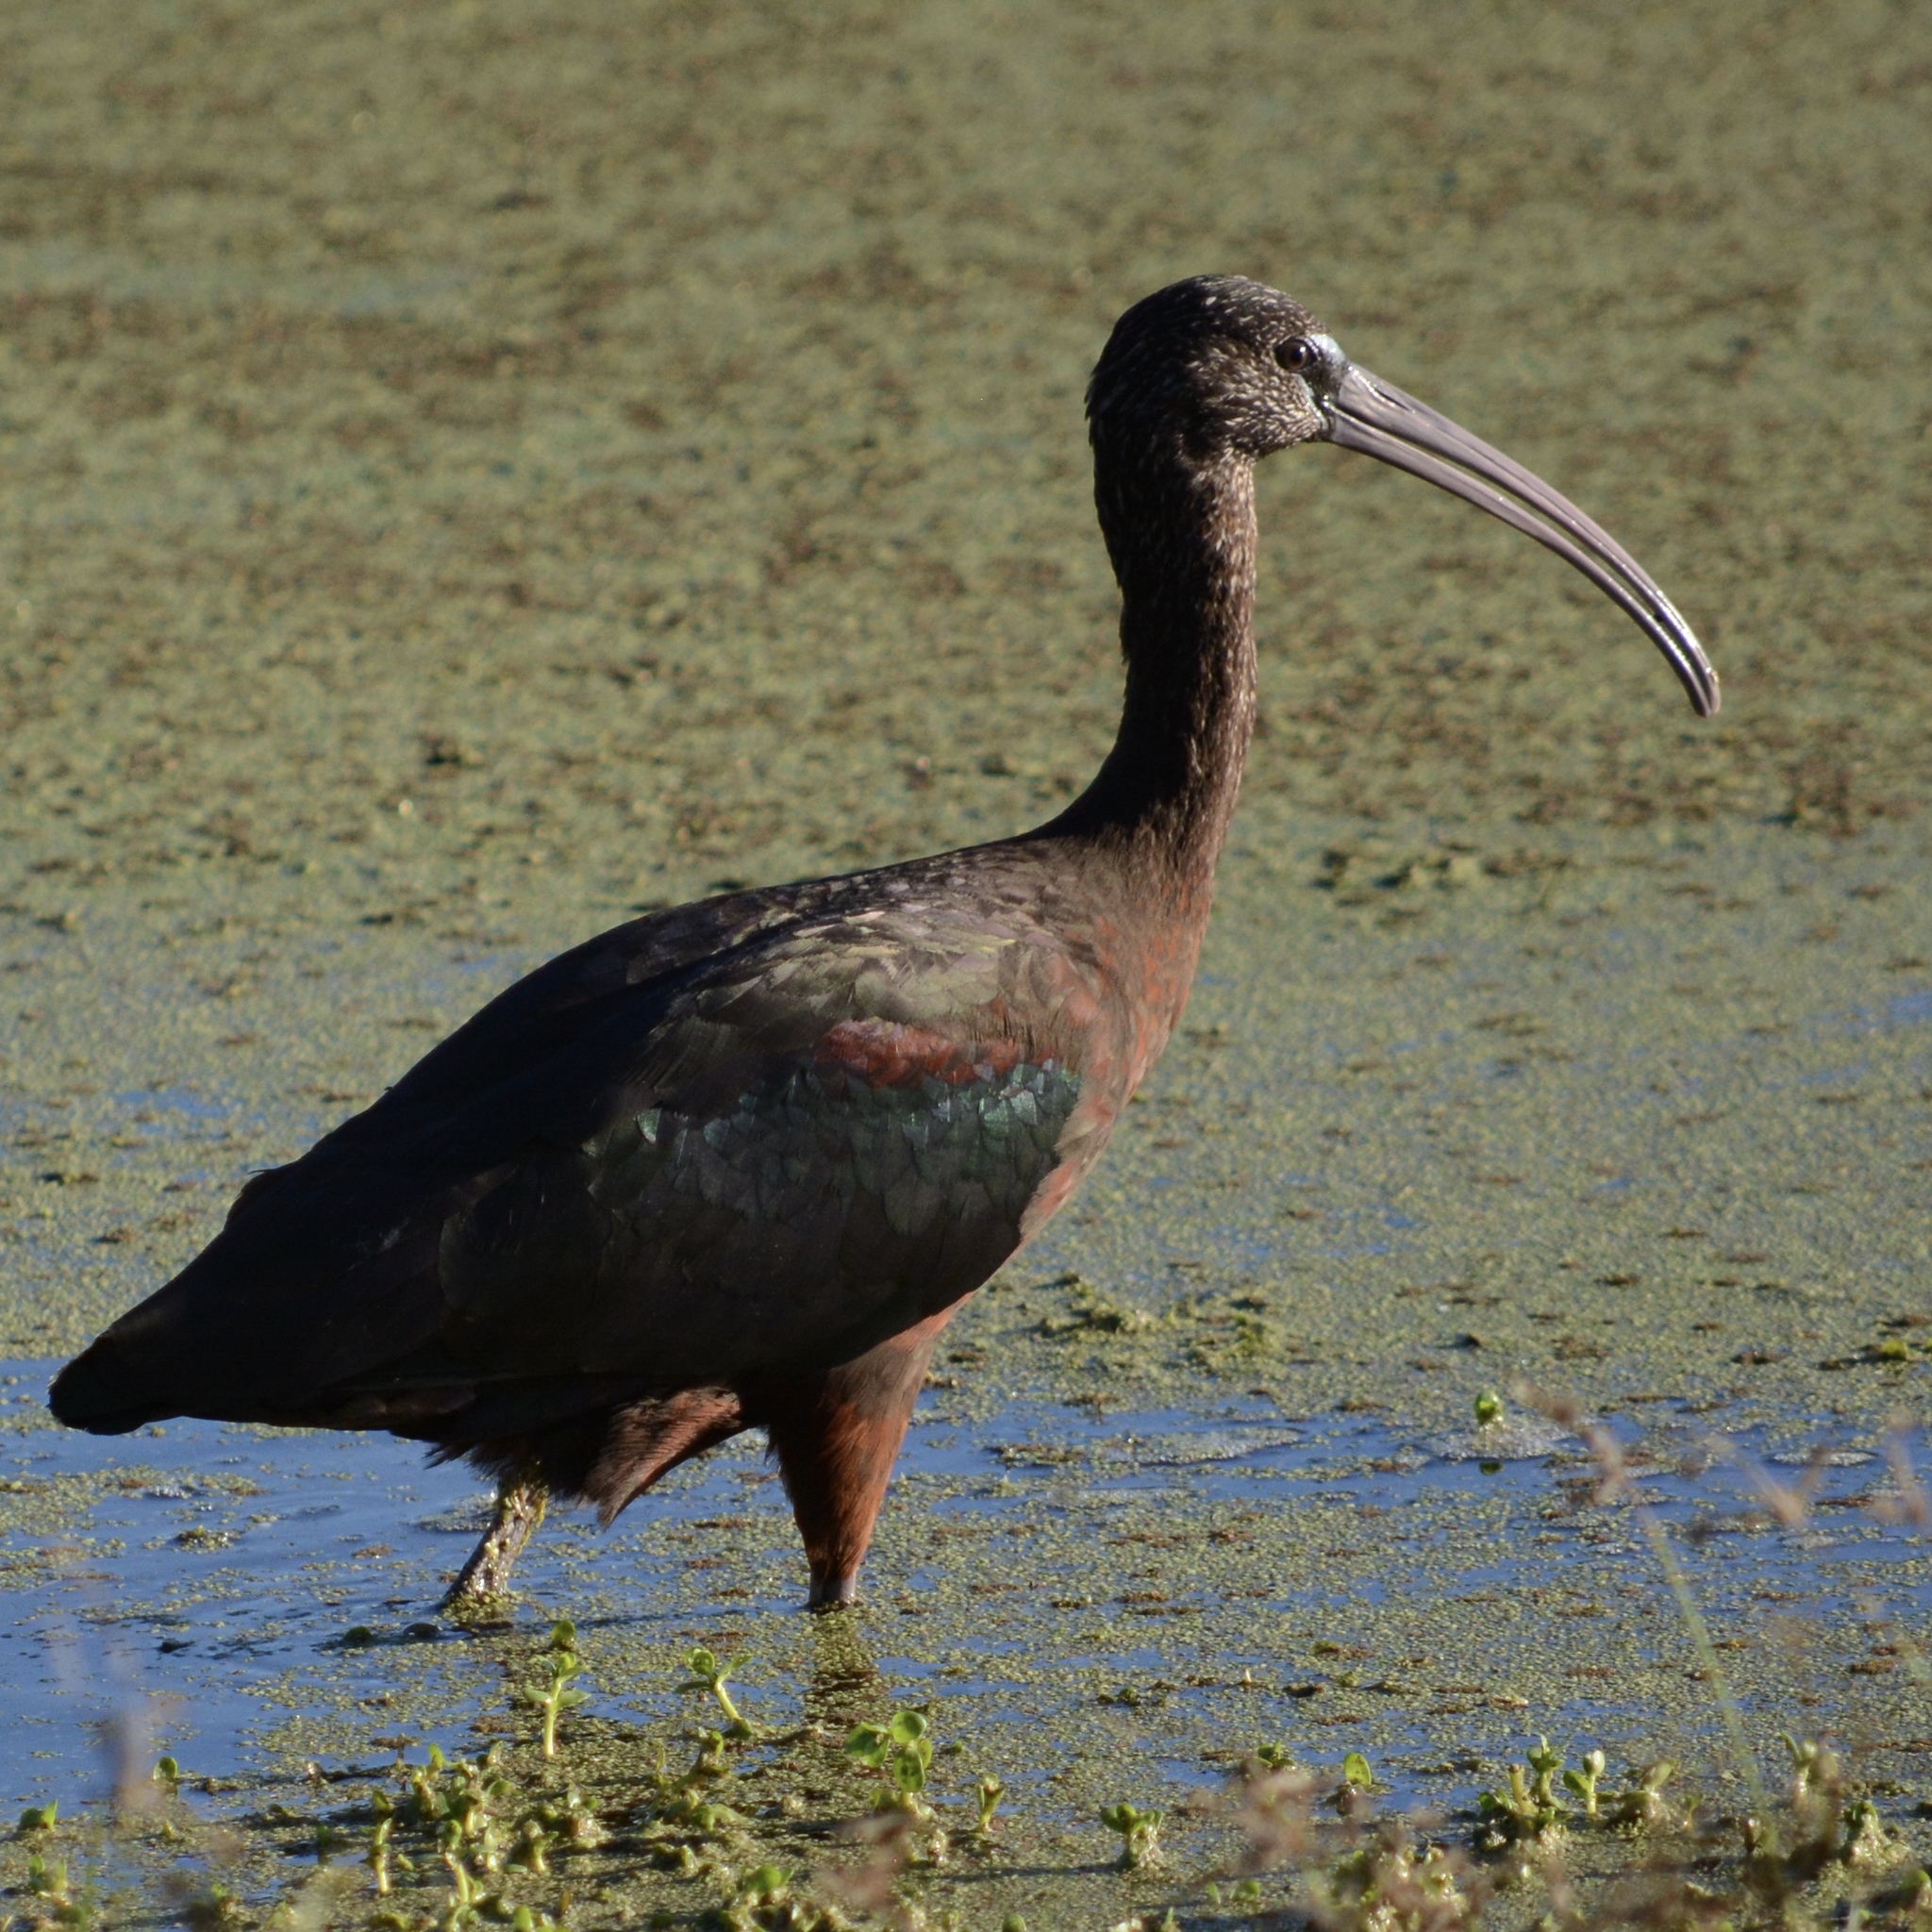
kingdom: Animalia
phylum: Chordata
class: Aves
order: Pelecaniformes
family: Threskiornithidae
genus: Plegadis
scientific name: Plegadis falcinellus
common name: Glossy ibis
